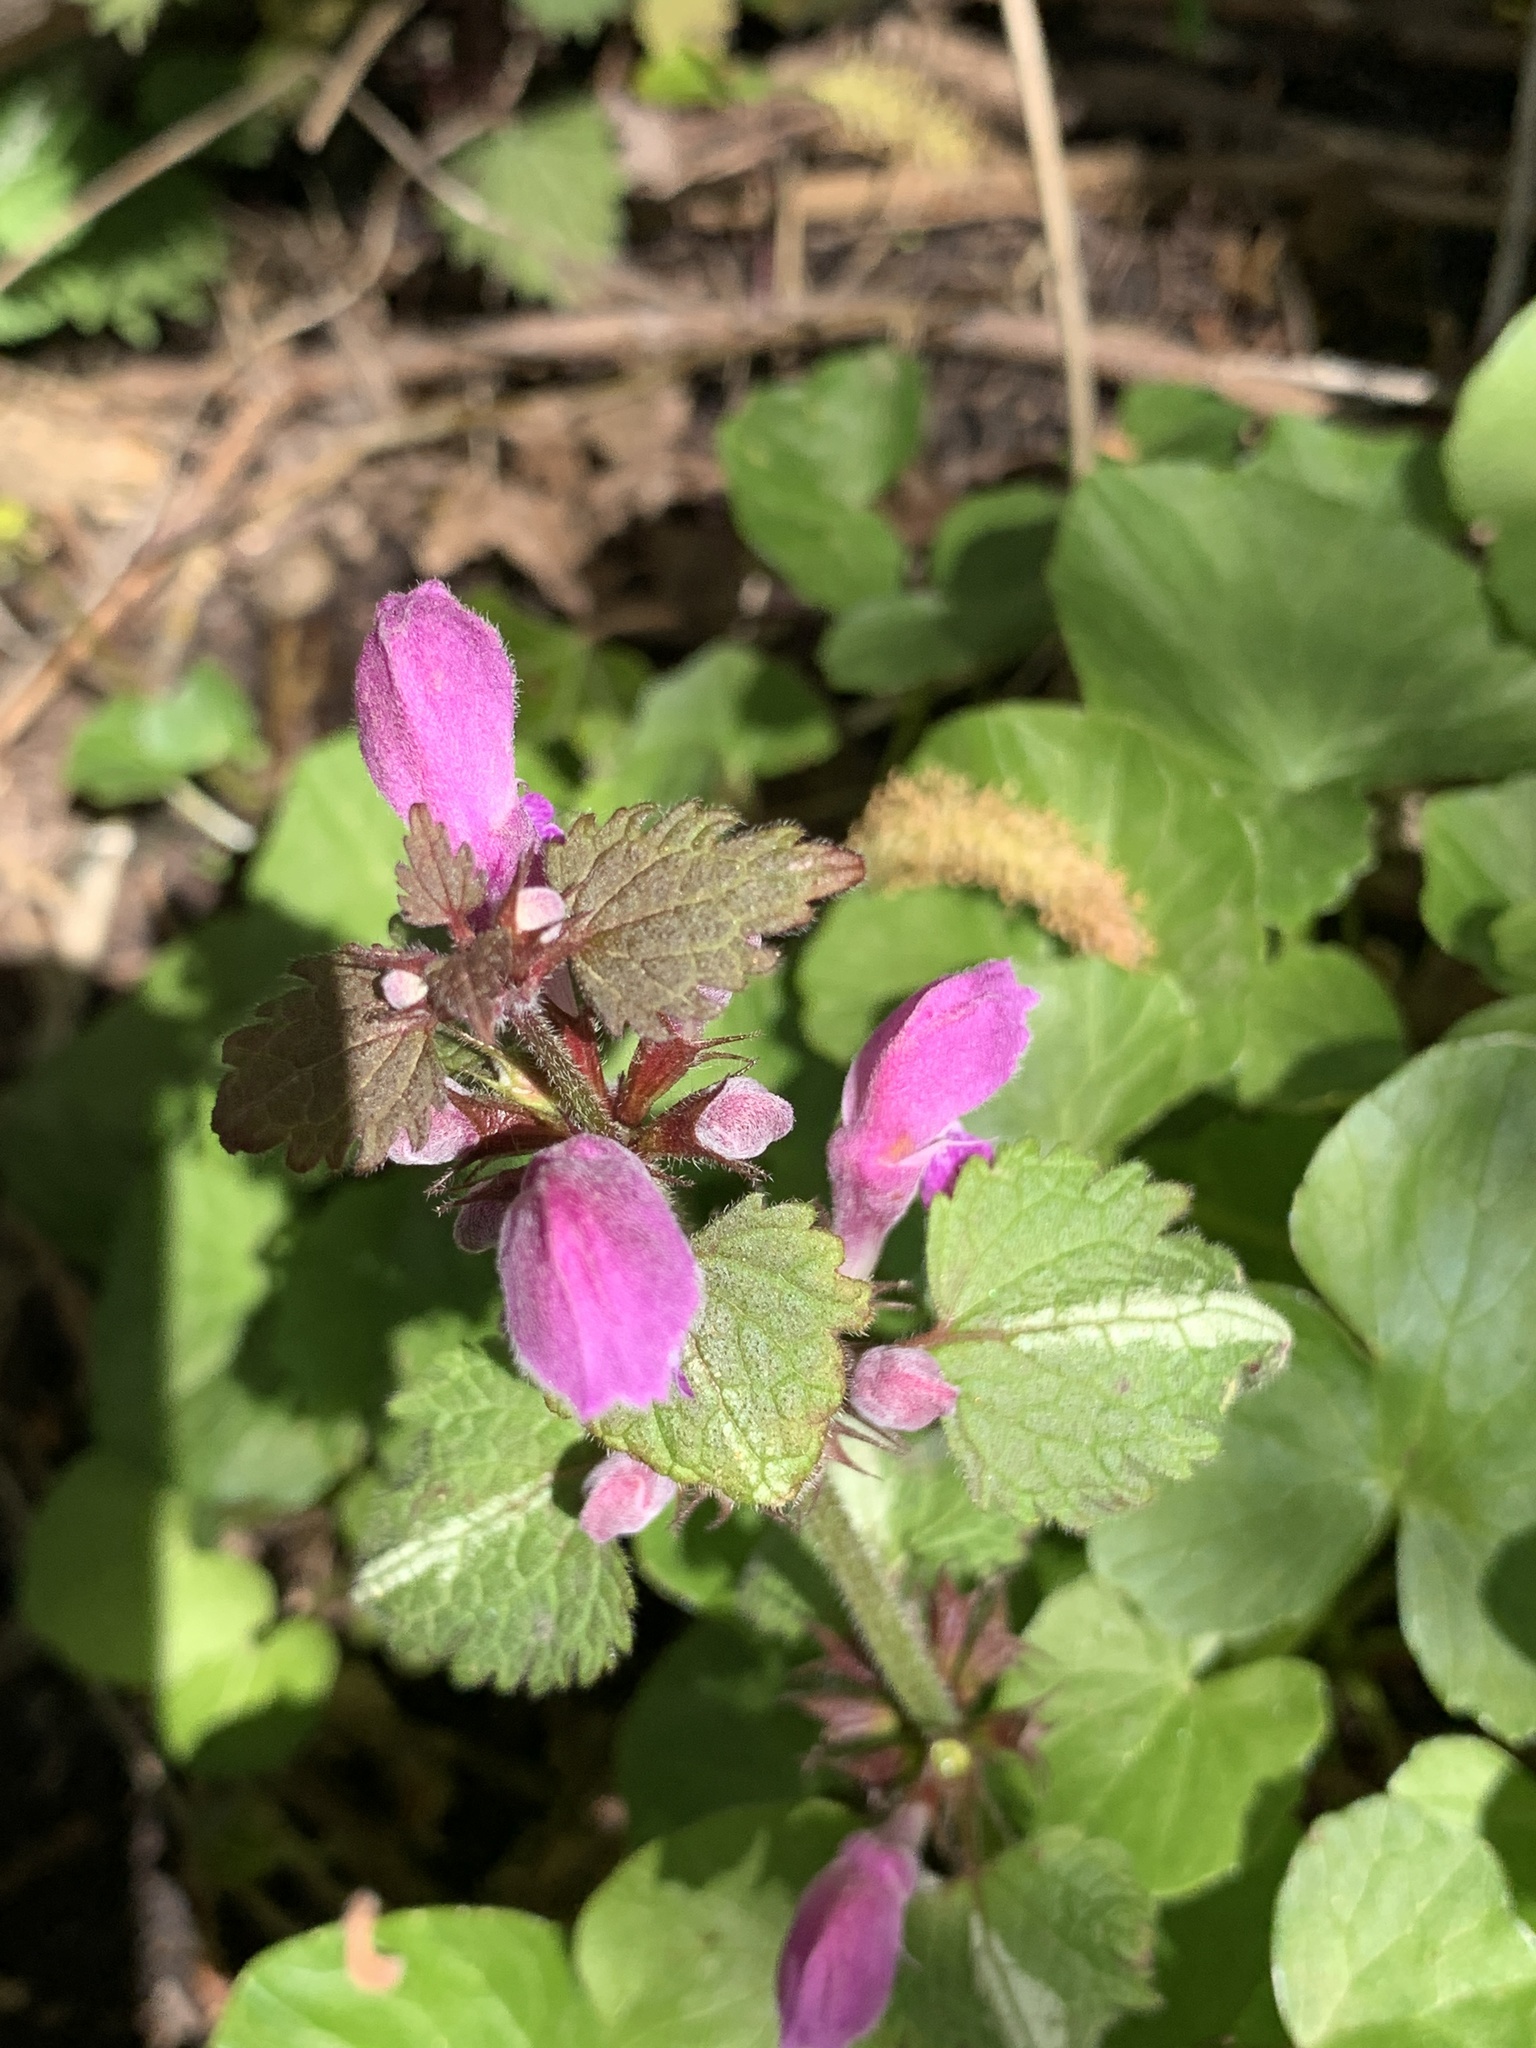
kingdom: Plantae
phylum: Tracheophyta
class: Magnoliopsida
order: Lamiales
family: Lamiaceae
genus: Lamium
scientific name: Lamium maculatum
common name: Spotted dead-nettle
